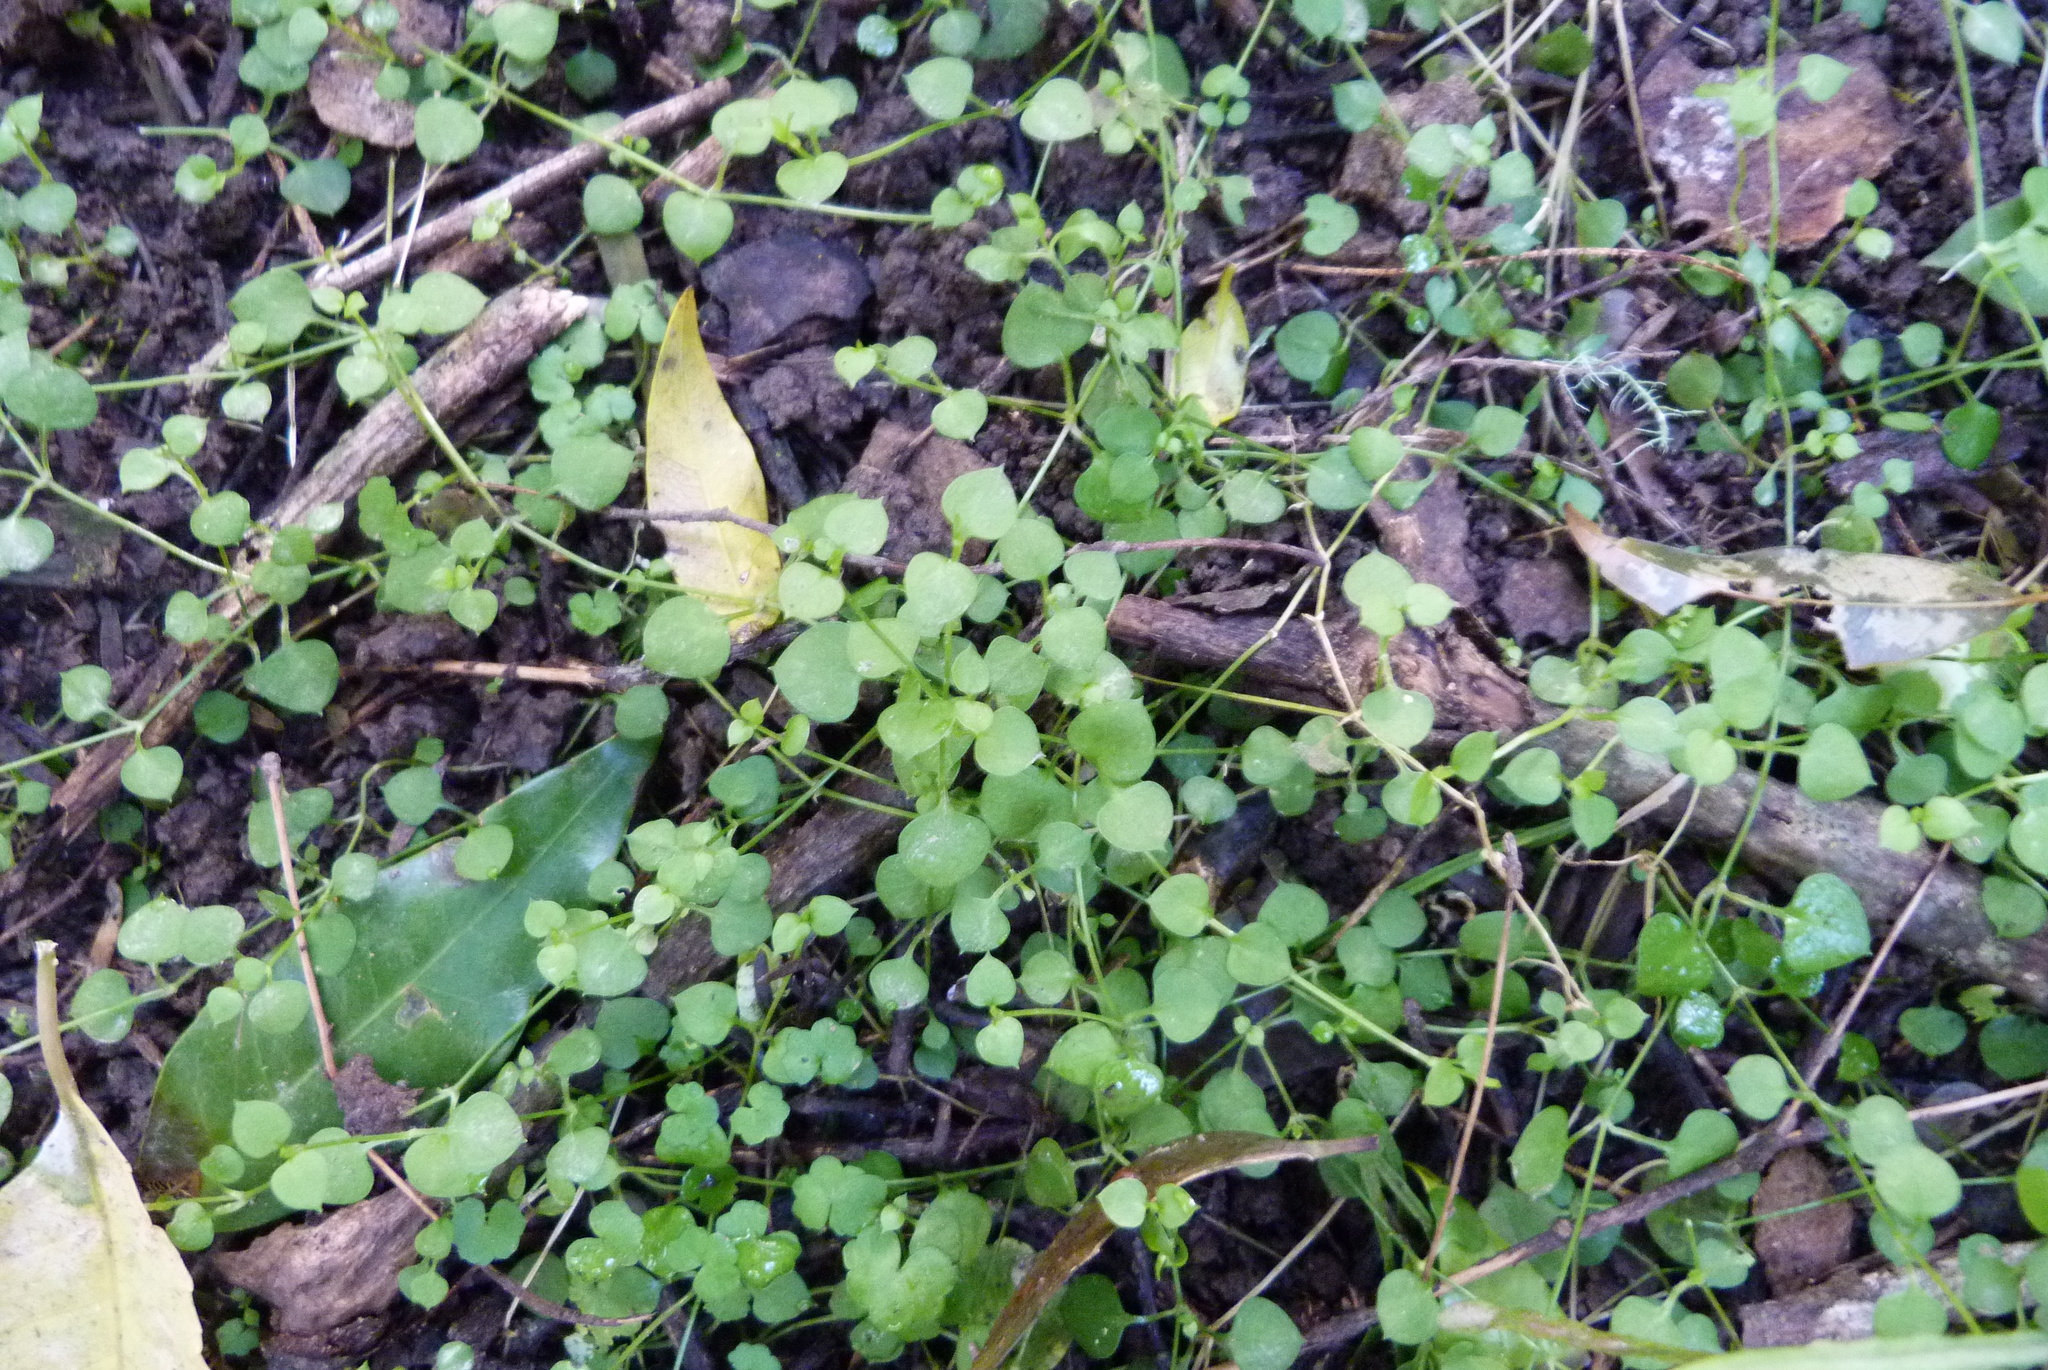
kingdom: Plantae
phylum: Tracheophyta
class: Magnoliopsida
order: Caryophyllales
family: Caryophyllaceae
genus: Stellaria
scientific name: Stellaria parviflora
